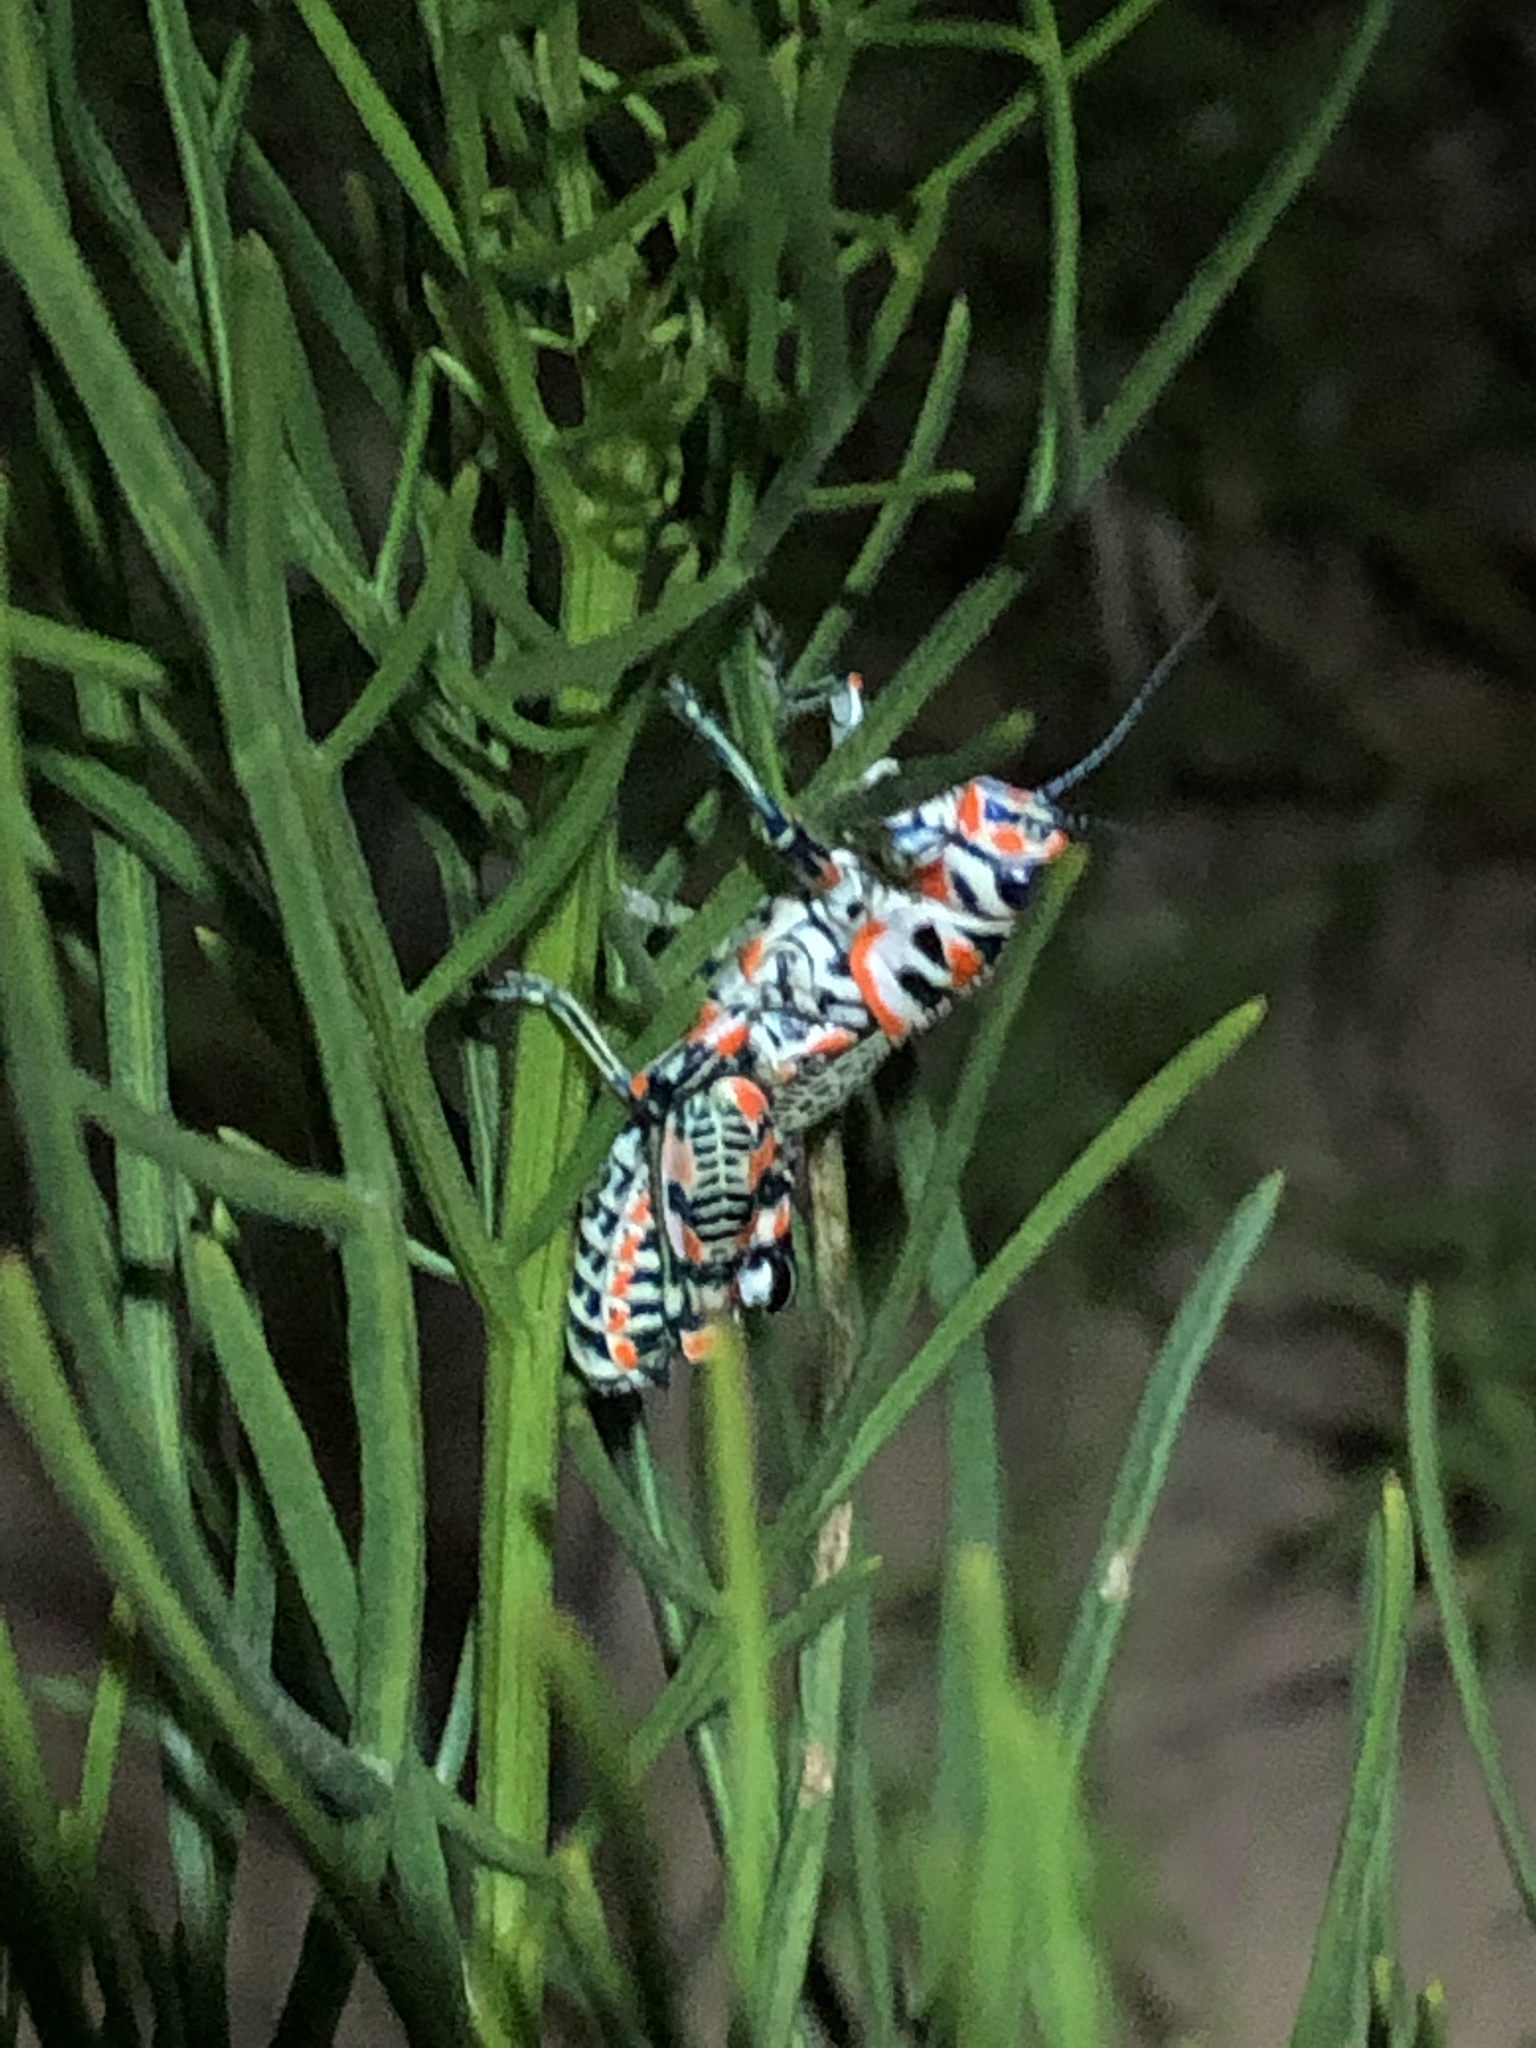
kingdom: Animalia
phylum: Arthropoda
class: Insecta
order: Orthoptera
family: Acrididae
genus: Dactylotum
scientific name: Dactylotum bicolor
